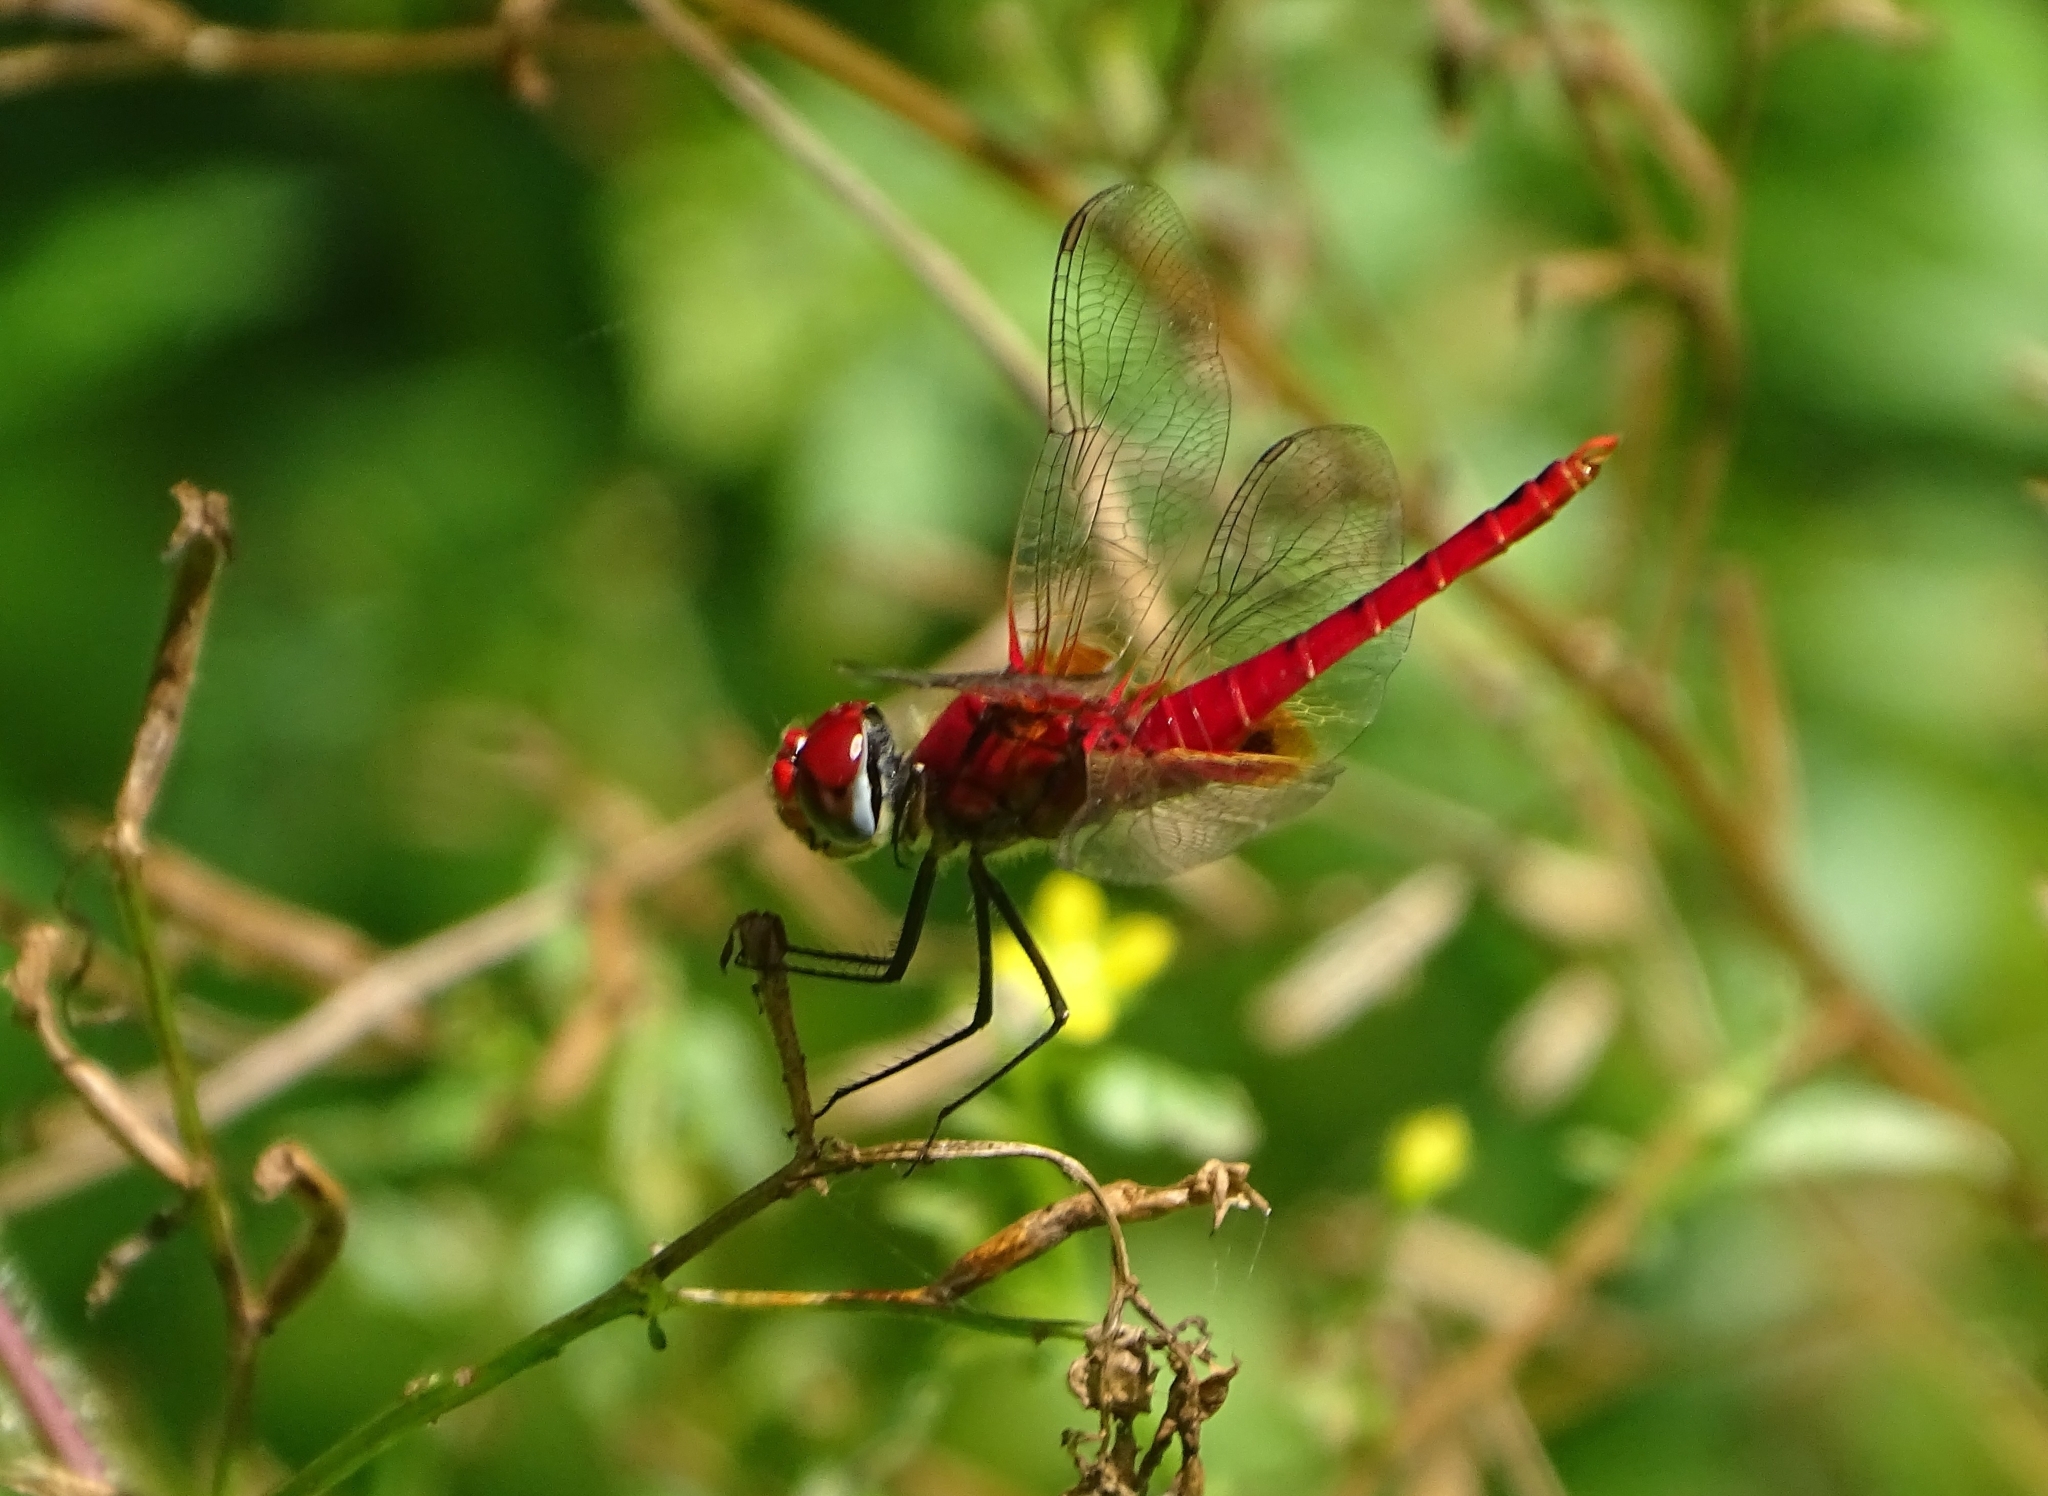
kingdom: Animalia
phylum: Arthropoda
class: Insecta
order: Odonata
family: Libellulidae
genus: Urothemis
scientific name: Urothemis signata
